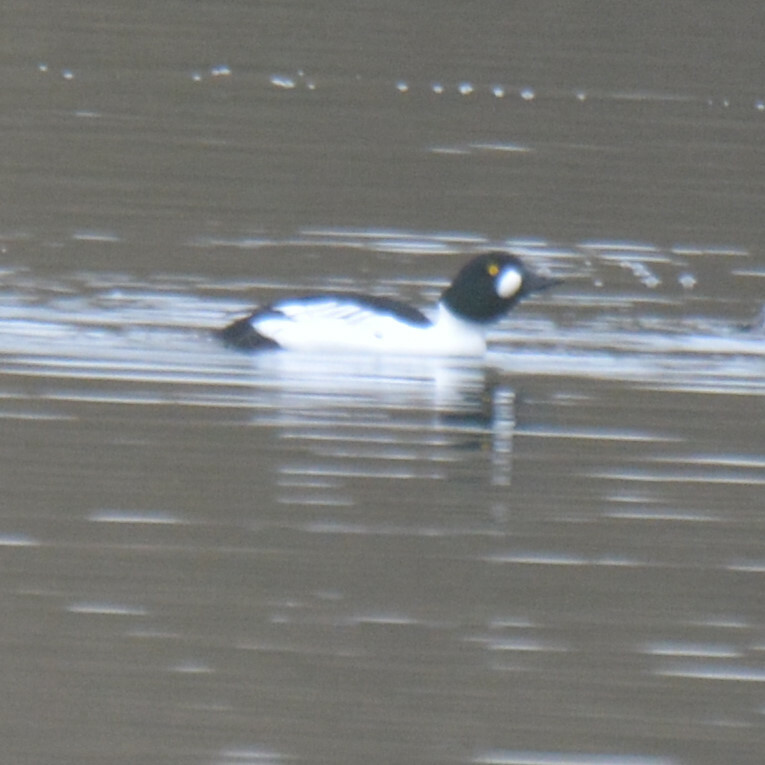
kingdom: Animalia
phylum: Chordata
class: Aves
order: Anseriformes
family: Anatidae
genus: Bucephala
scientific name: Bucephala clangula
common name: Common goldeneye
